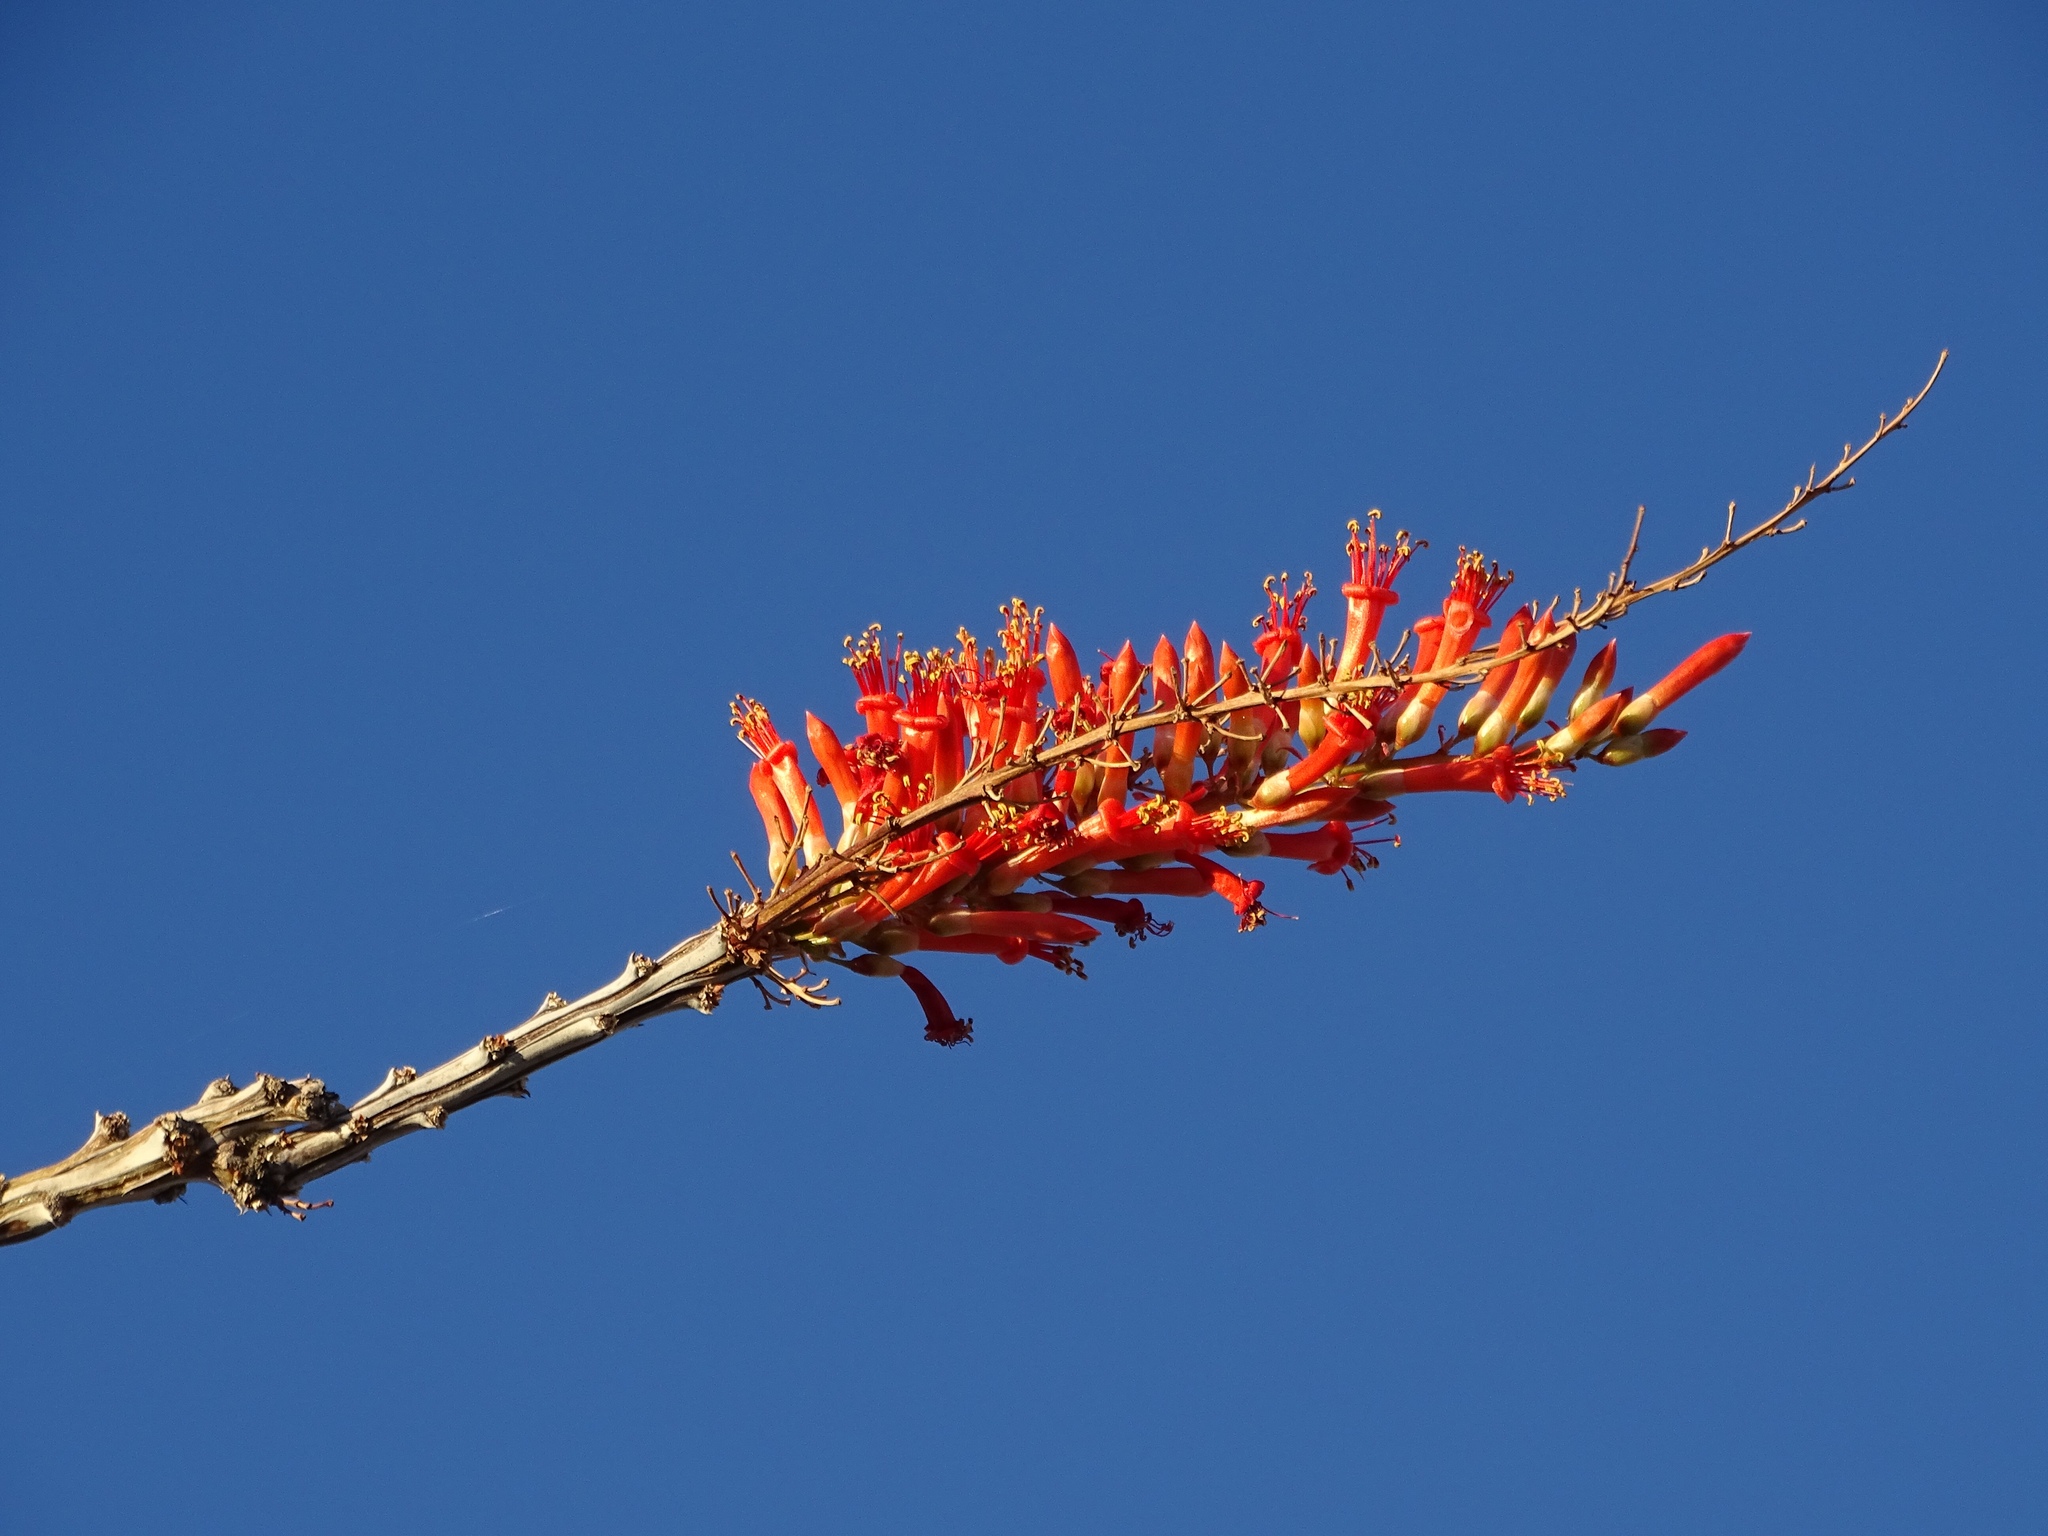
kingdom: Plantae
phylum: Tracheophyta
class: Magnoliopsida
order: Ericales
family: Fouquieriaceae
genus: Fouquieria
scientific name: Fouquieria splendens
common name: Vine-cactus
